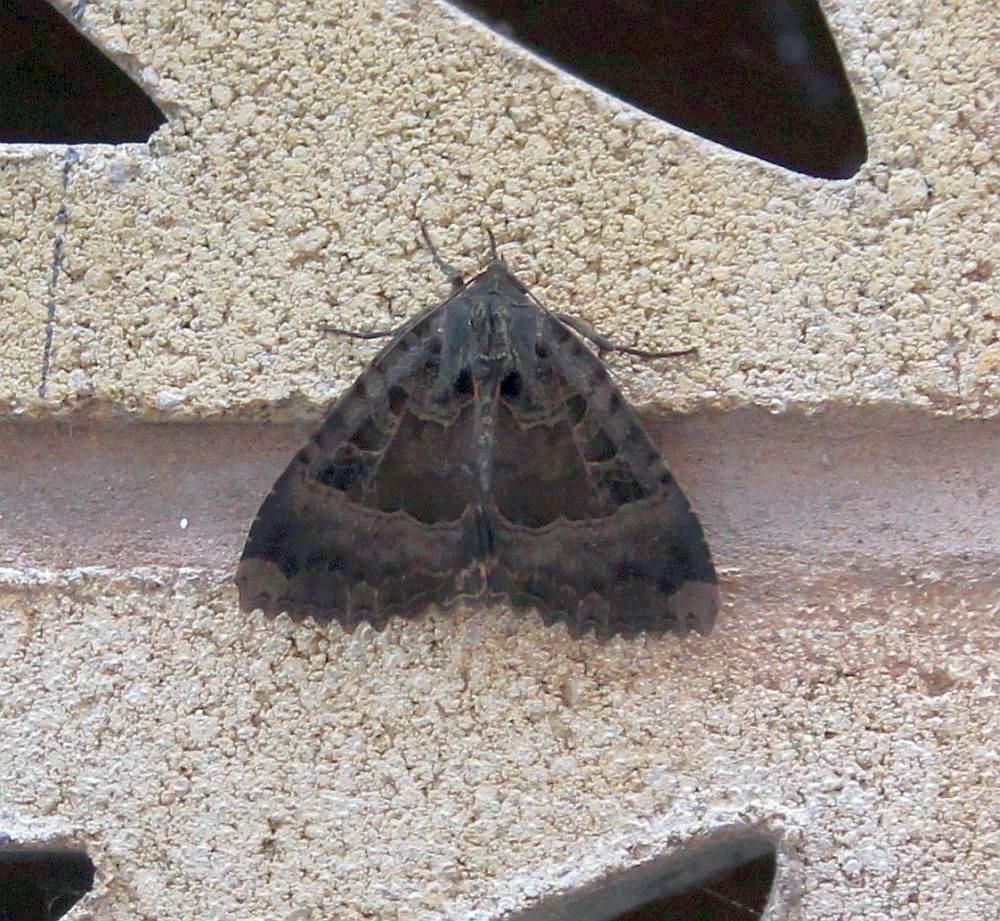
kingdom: Animalia
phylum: Arthropoda
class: Insecta
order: Lepidoptera
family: Noctuidae
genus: Mormo
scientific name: Mormo maura
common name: Old lady
